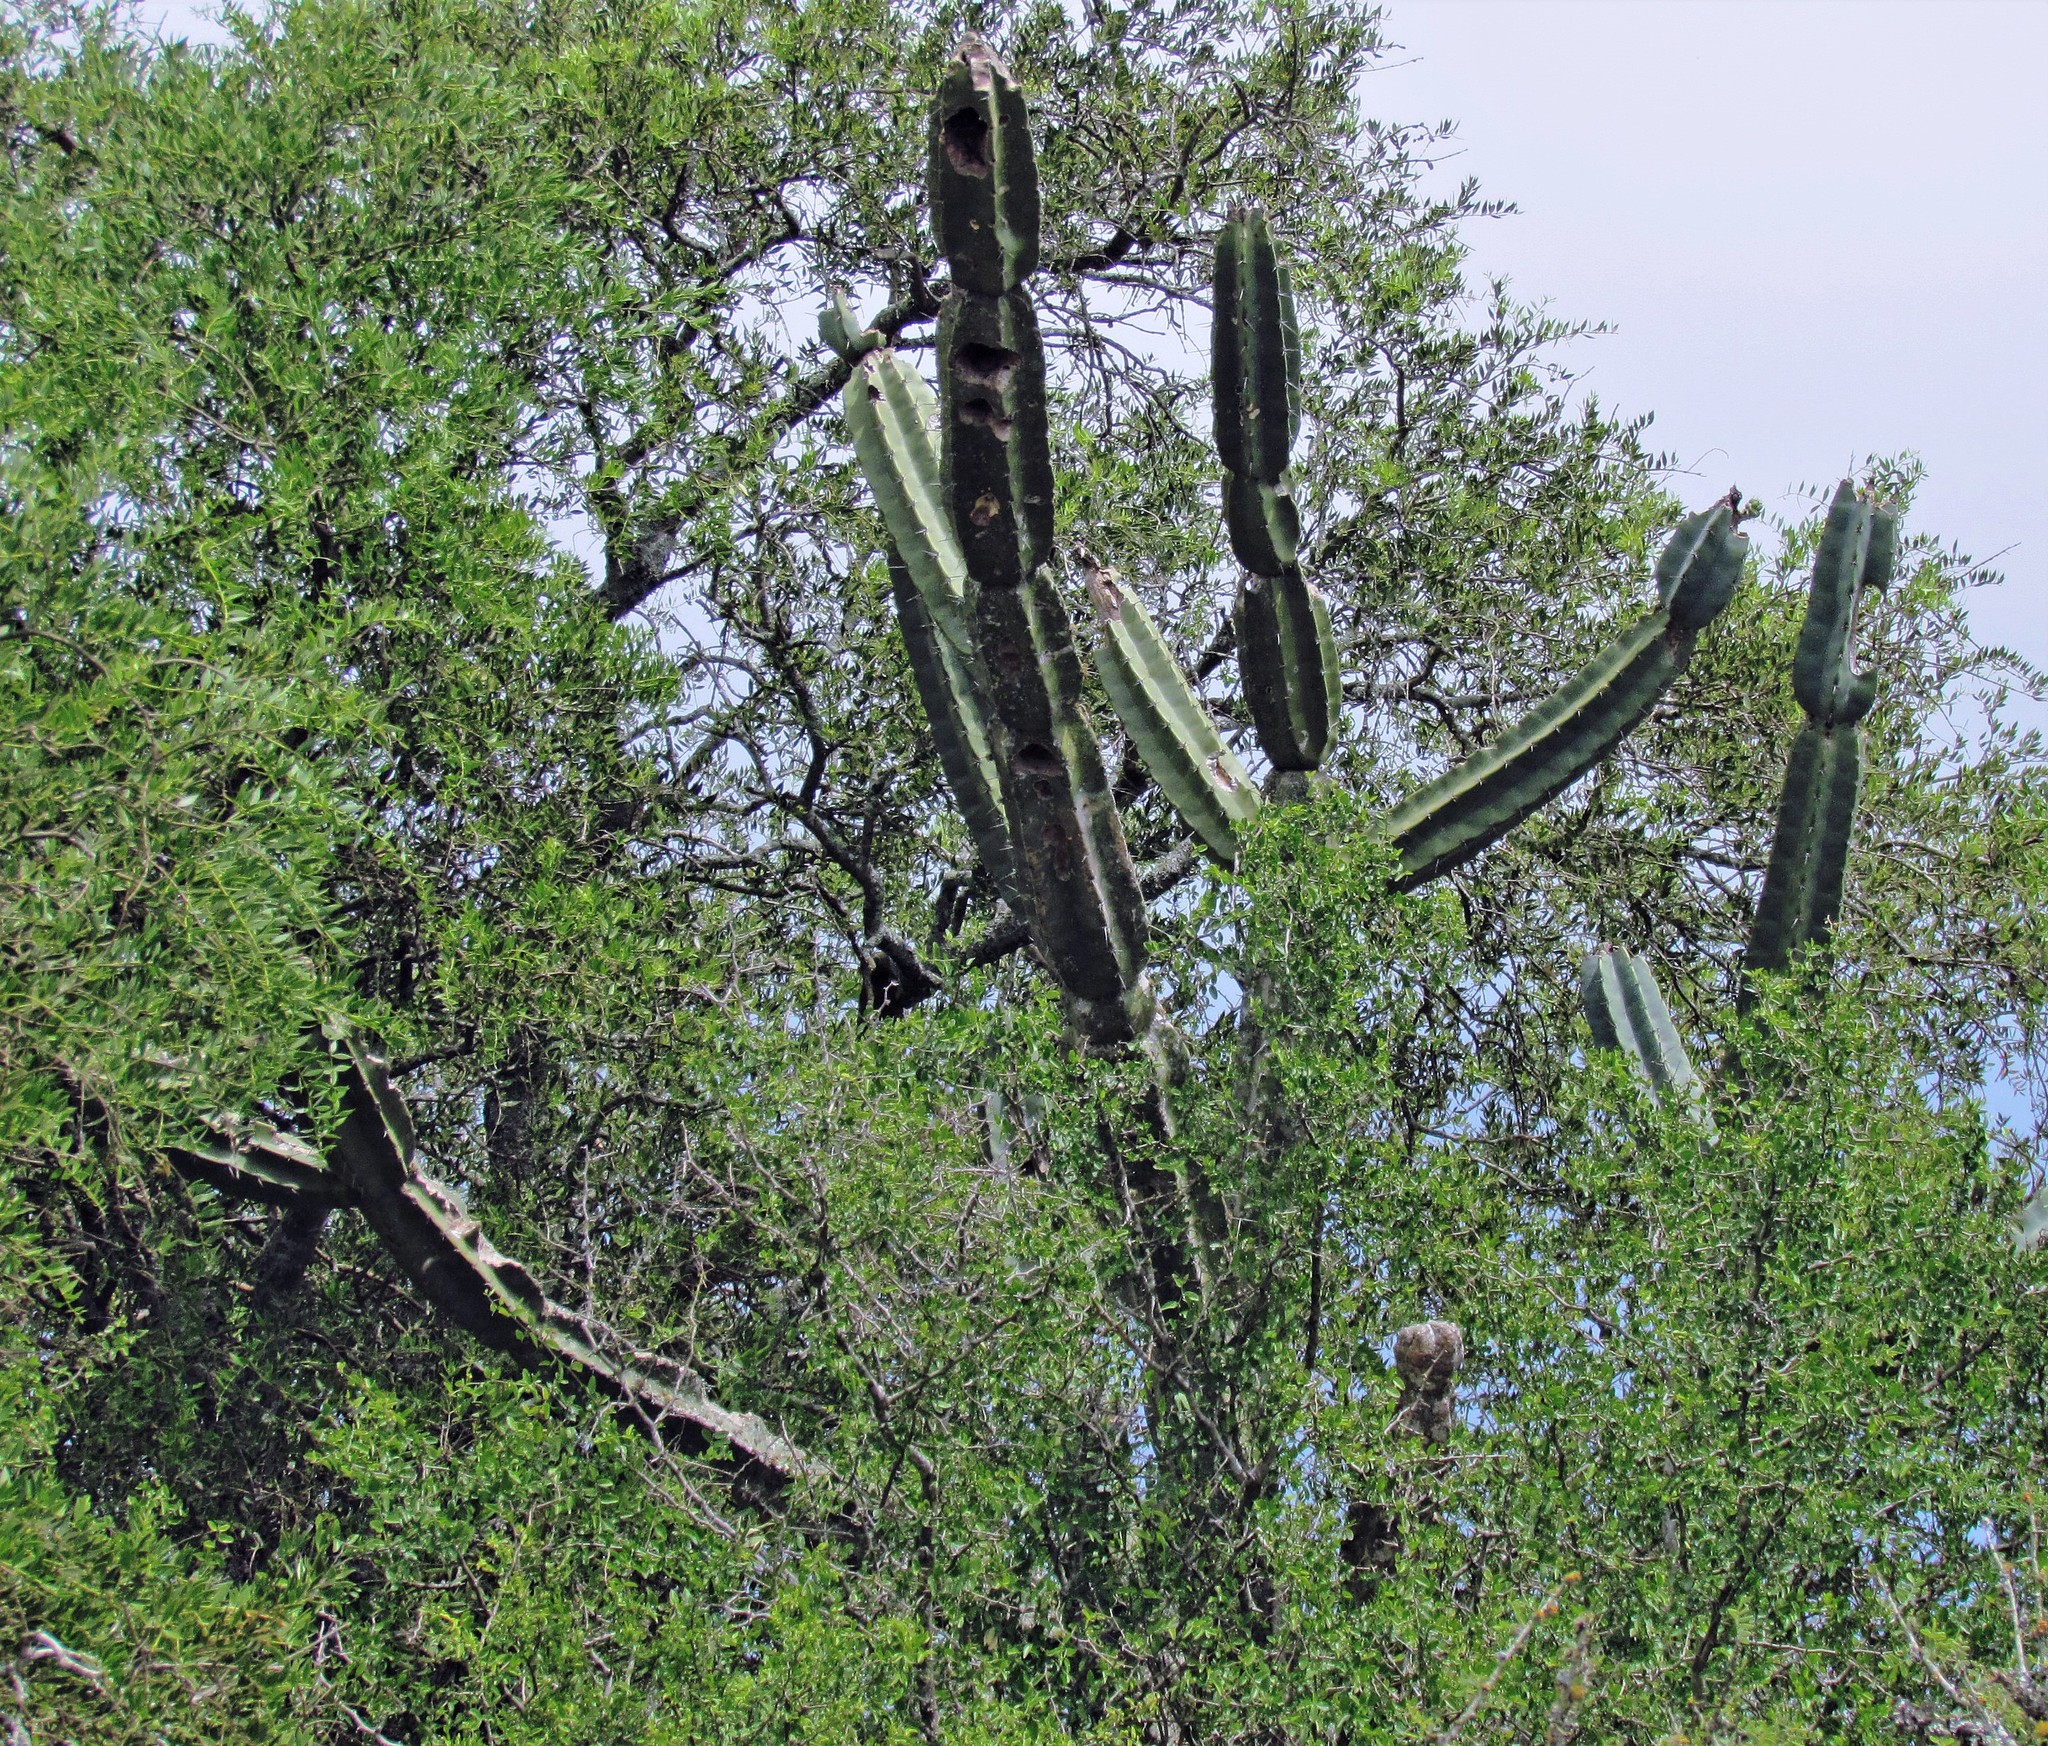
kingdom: Plantae
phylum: Tracheophyta
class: Magnoliopsida
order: Caryophyllales
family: Cactaceae
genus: Cereus
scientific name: Cereus hildmannianus
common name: Hedge cactus
